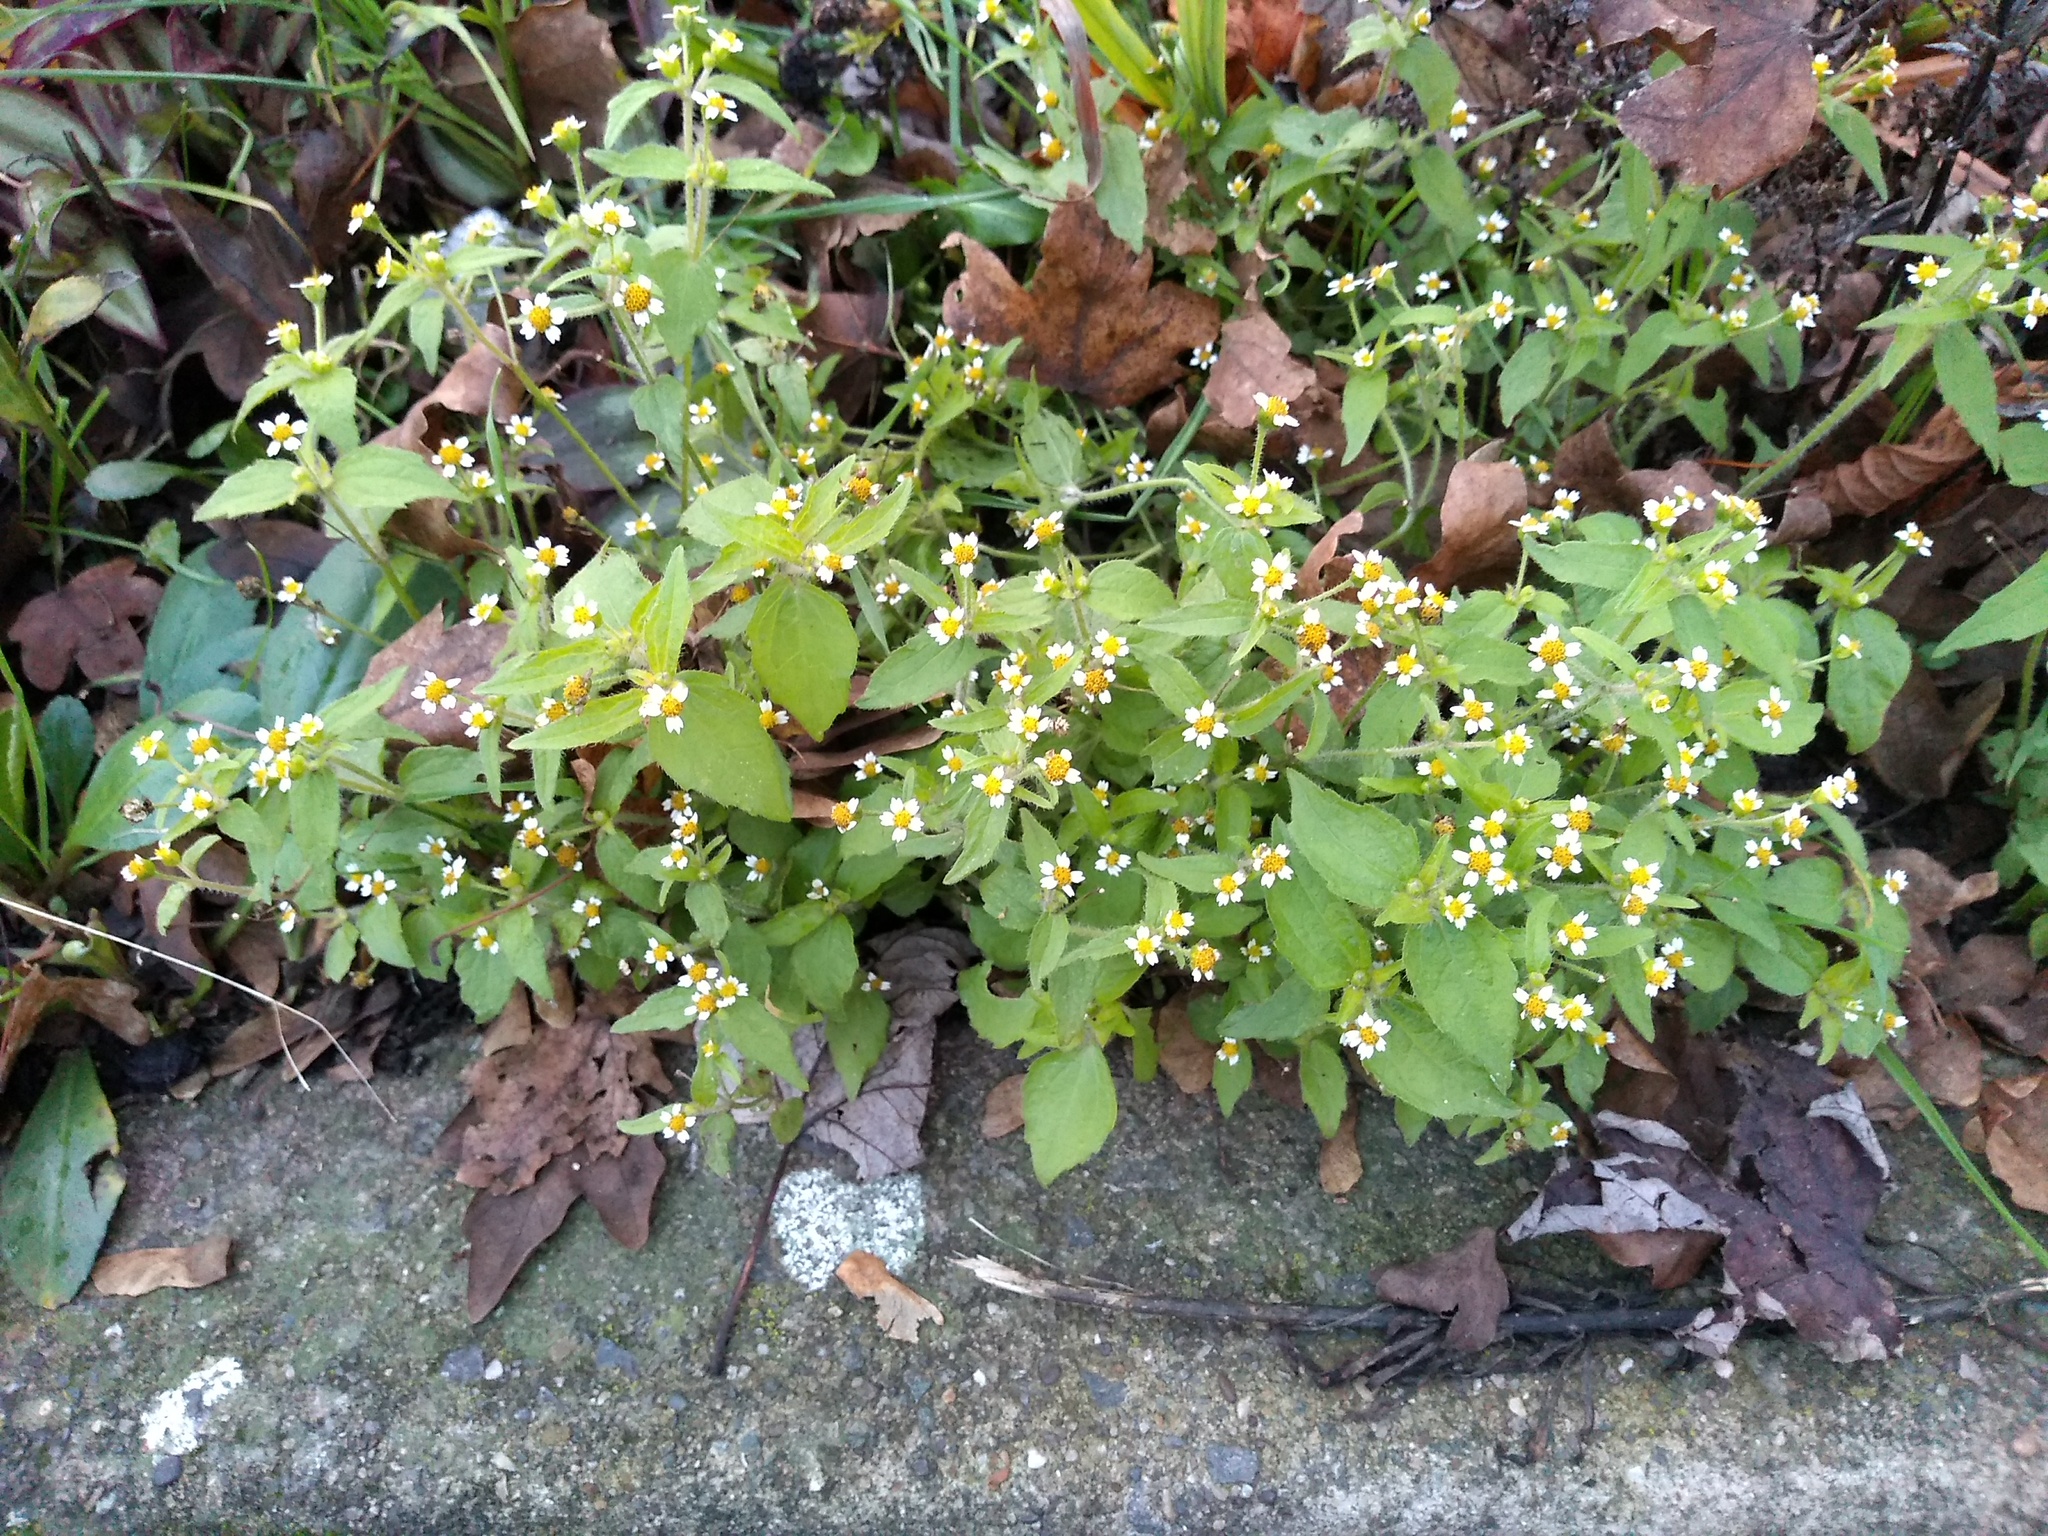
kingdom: Plantae
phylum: Tracheophyta
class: Magnoliopsida
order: Asterales
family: Asteraceae
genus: Galinsoga
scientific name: Galinsoga quadriradiata
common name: Shaggy soldier
